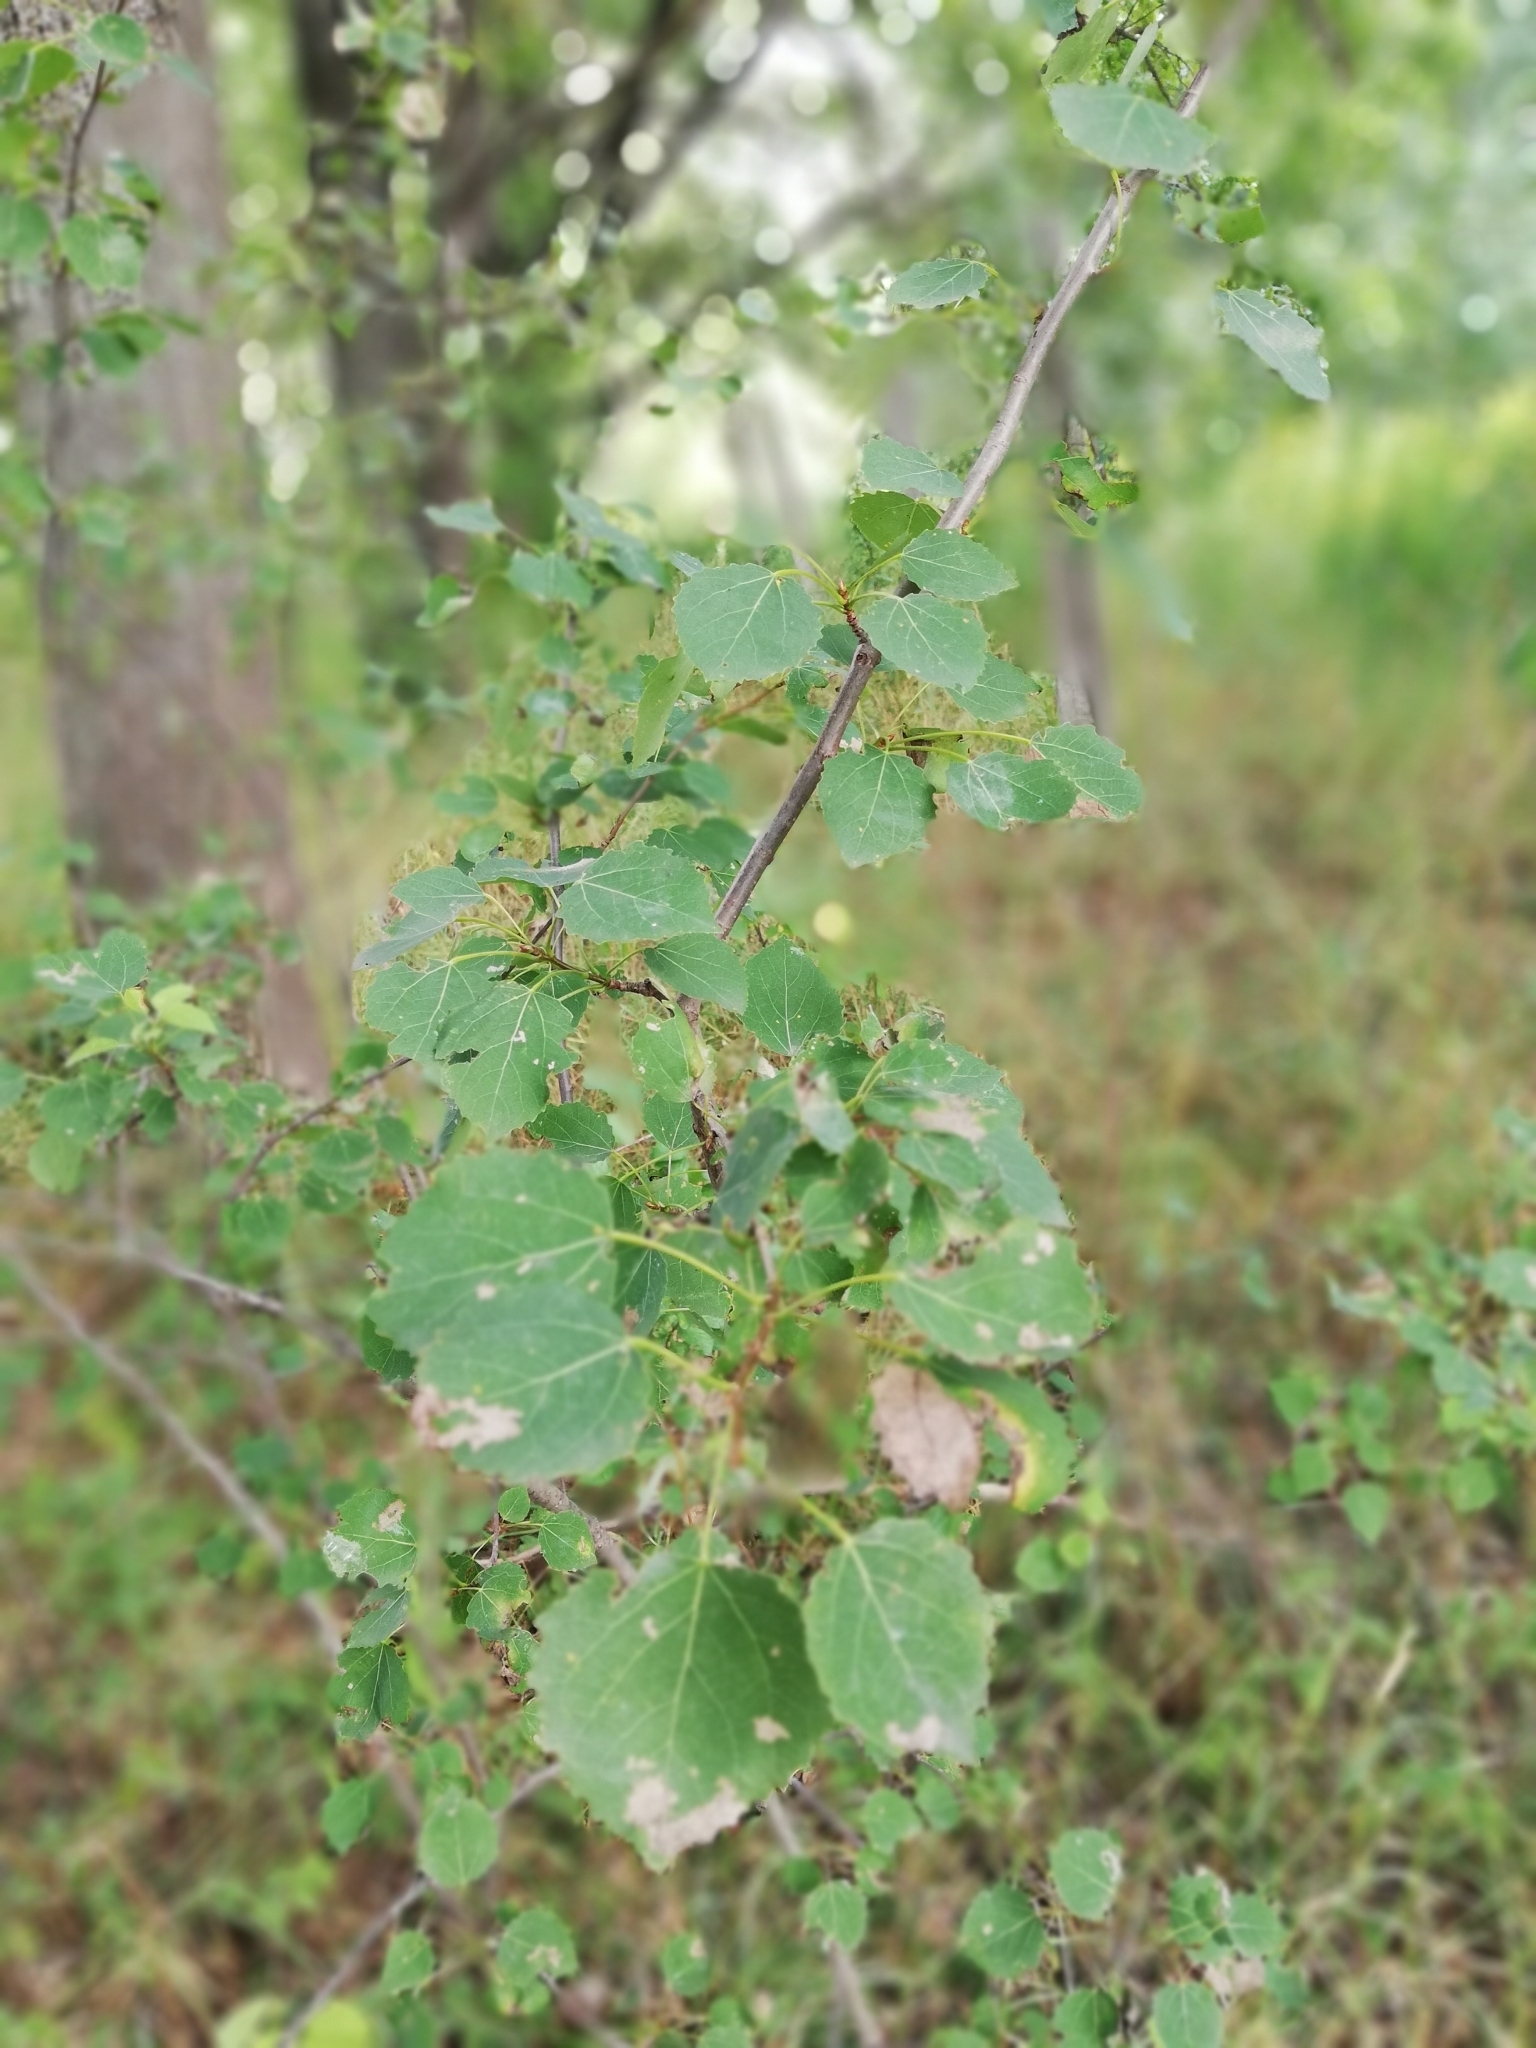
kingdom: Plantae
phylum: Tracheophyta
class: Magnoliopsida
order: Malpighiales
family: Salicaceae
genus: Populus
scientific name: Populus tremula
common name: European aspen
